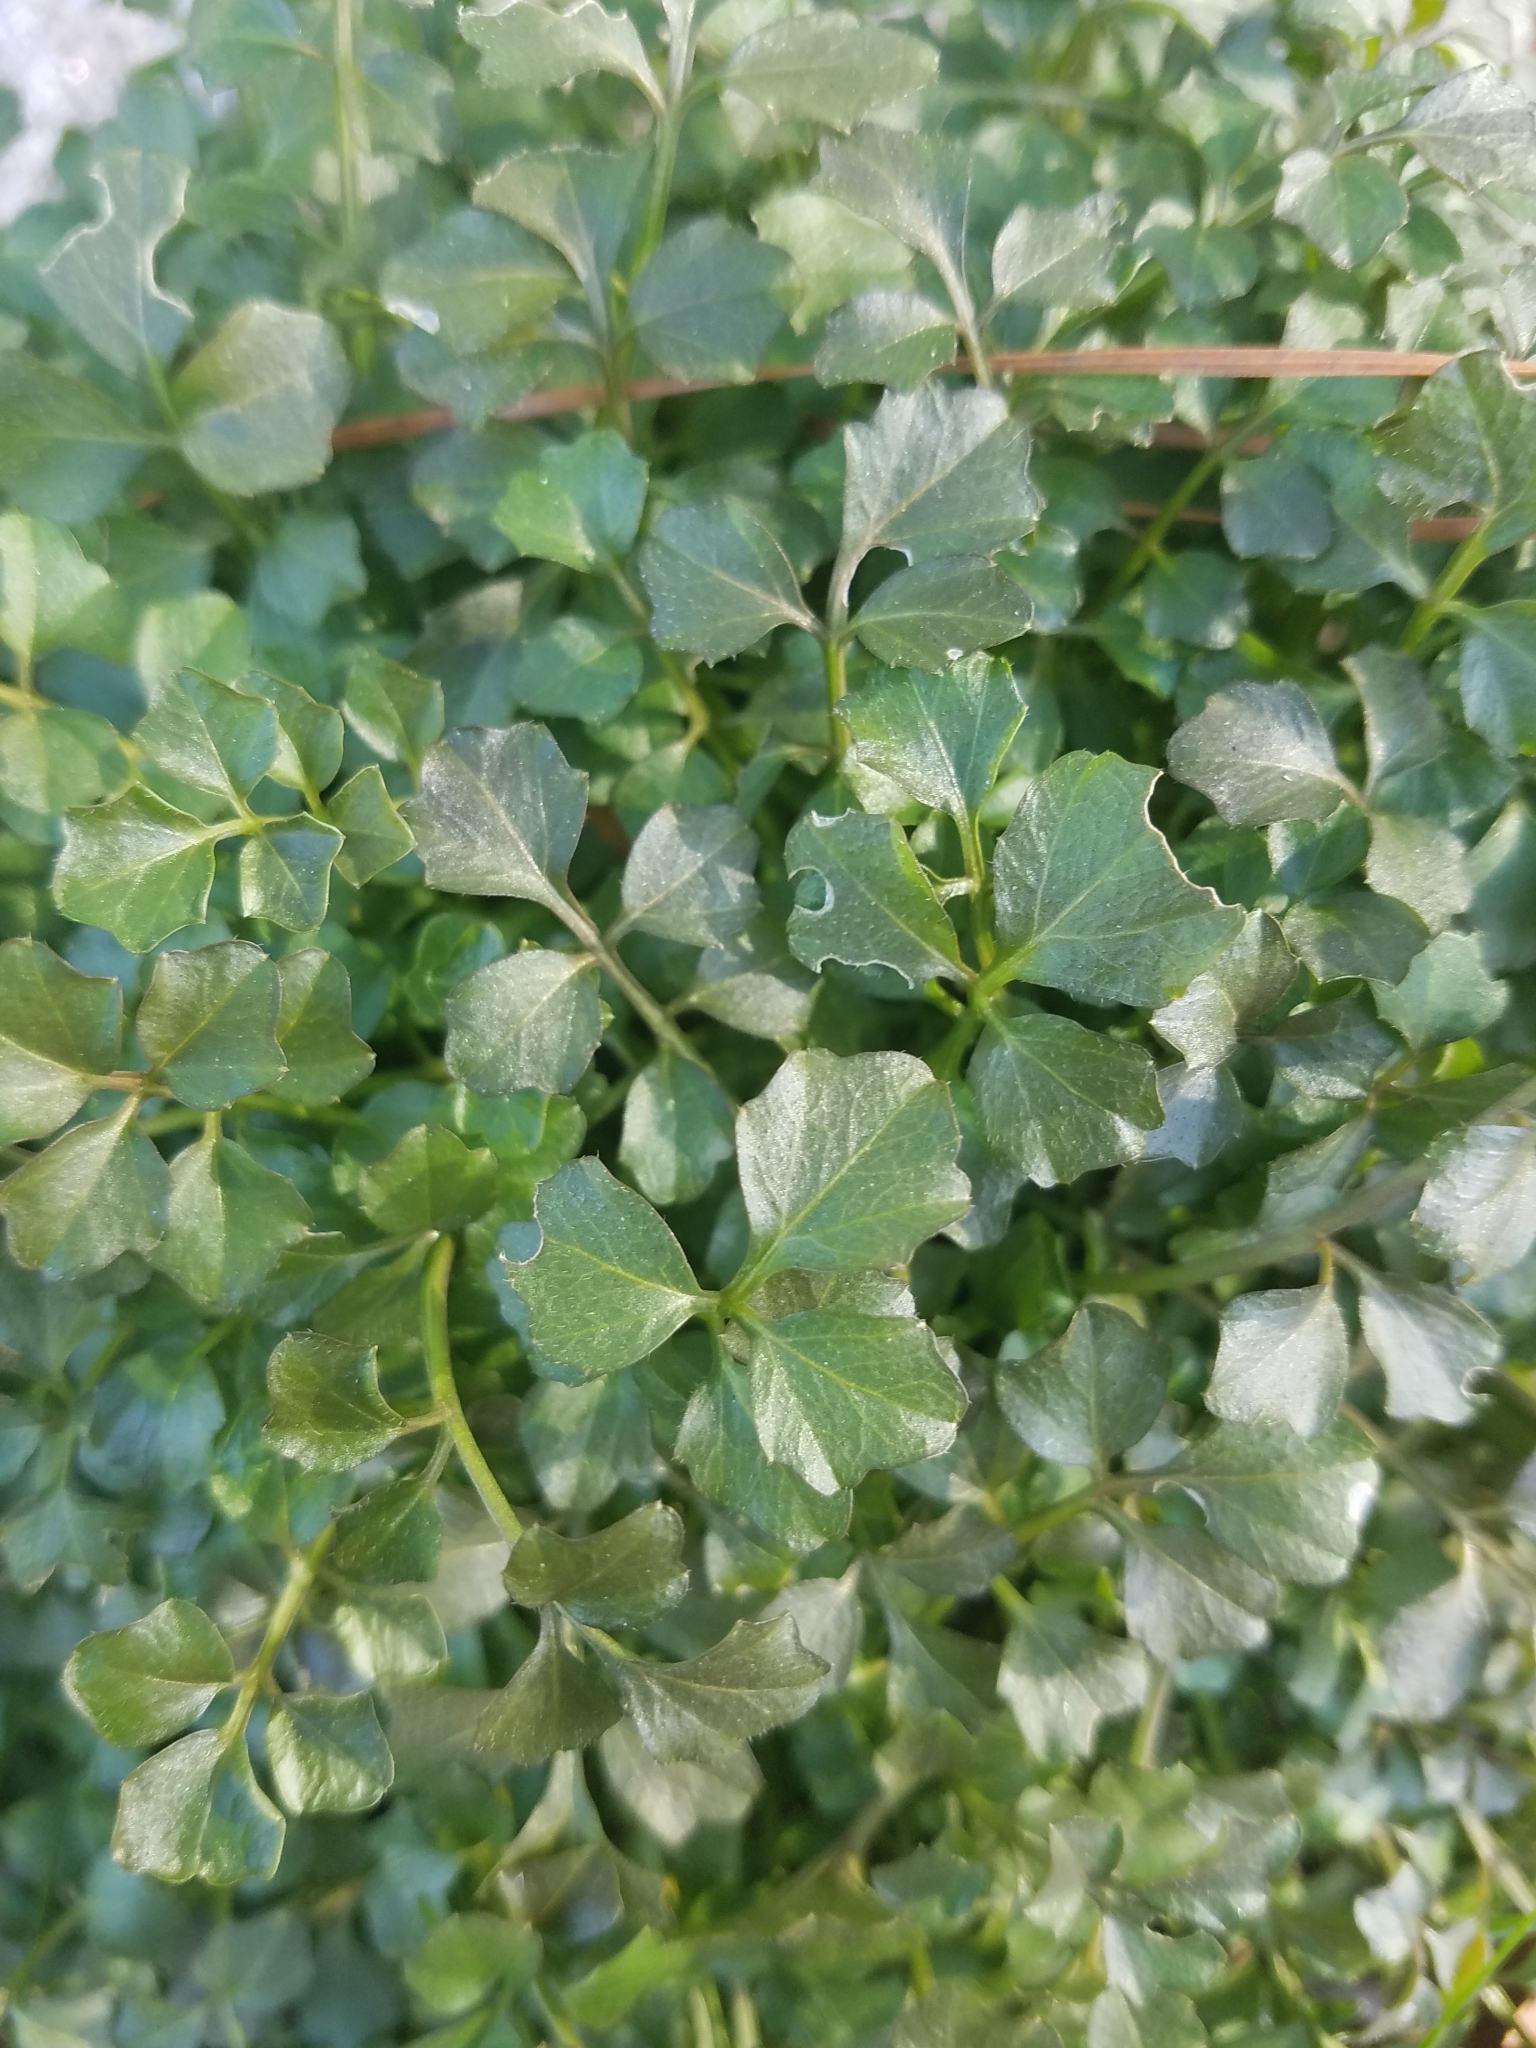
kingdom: Plantae
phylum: Tracheophyta
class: Magnoliopsida
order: Brassicales
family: Brassicaceae
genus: Cardamine
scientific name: Cardamine hirsuta
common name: Hairy bittercress
